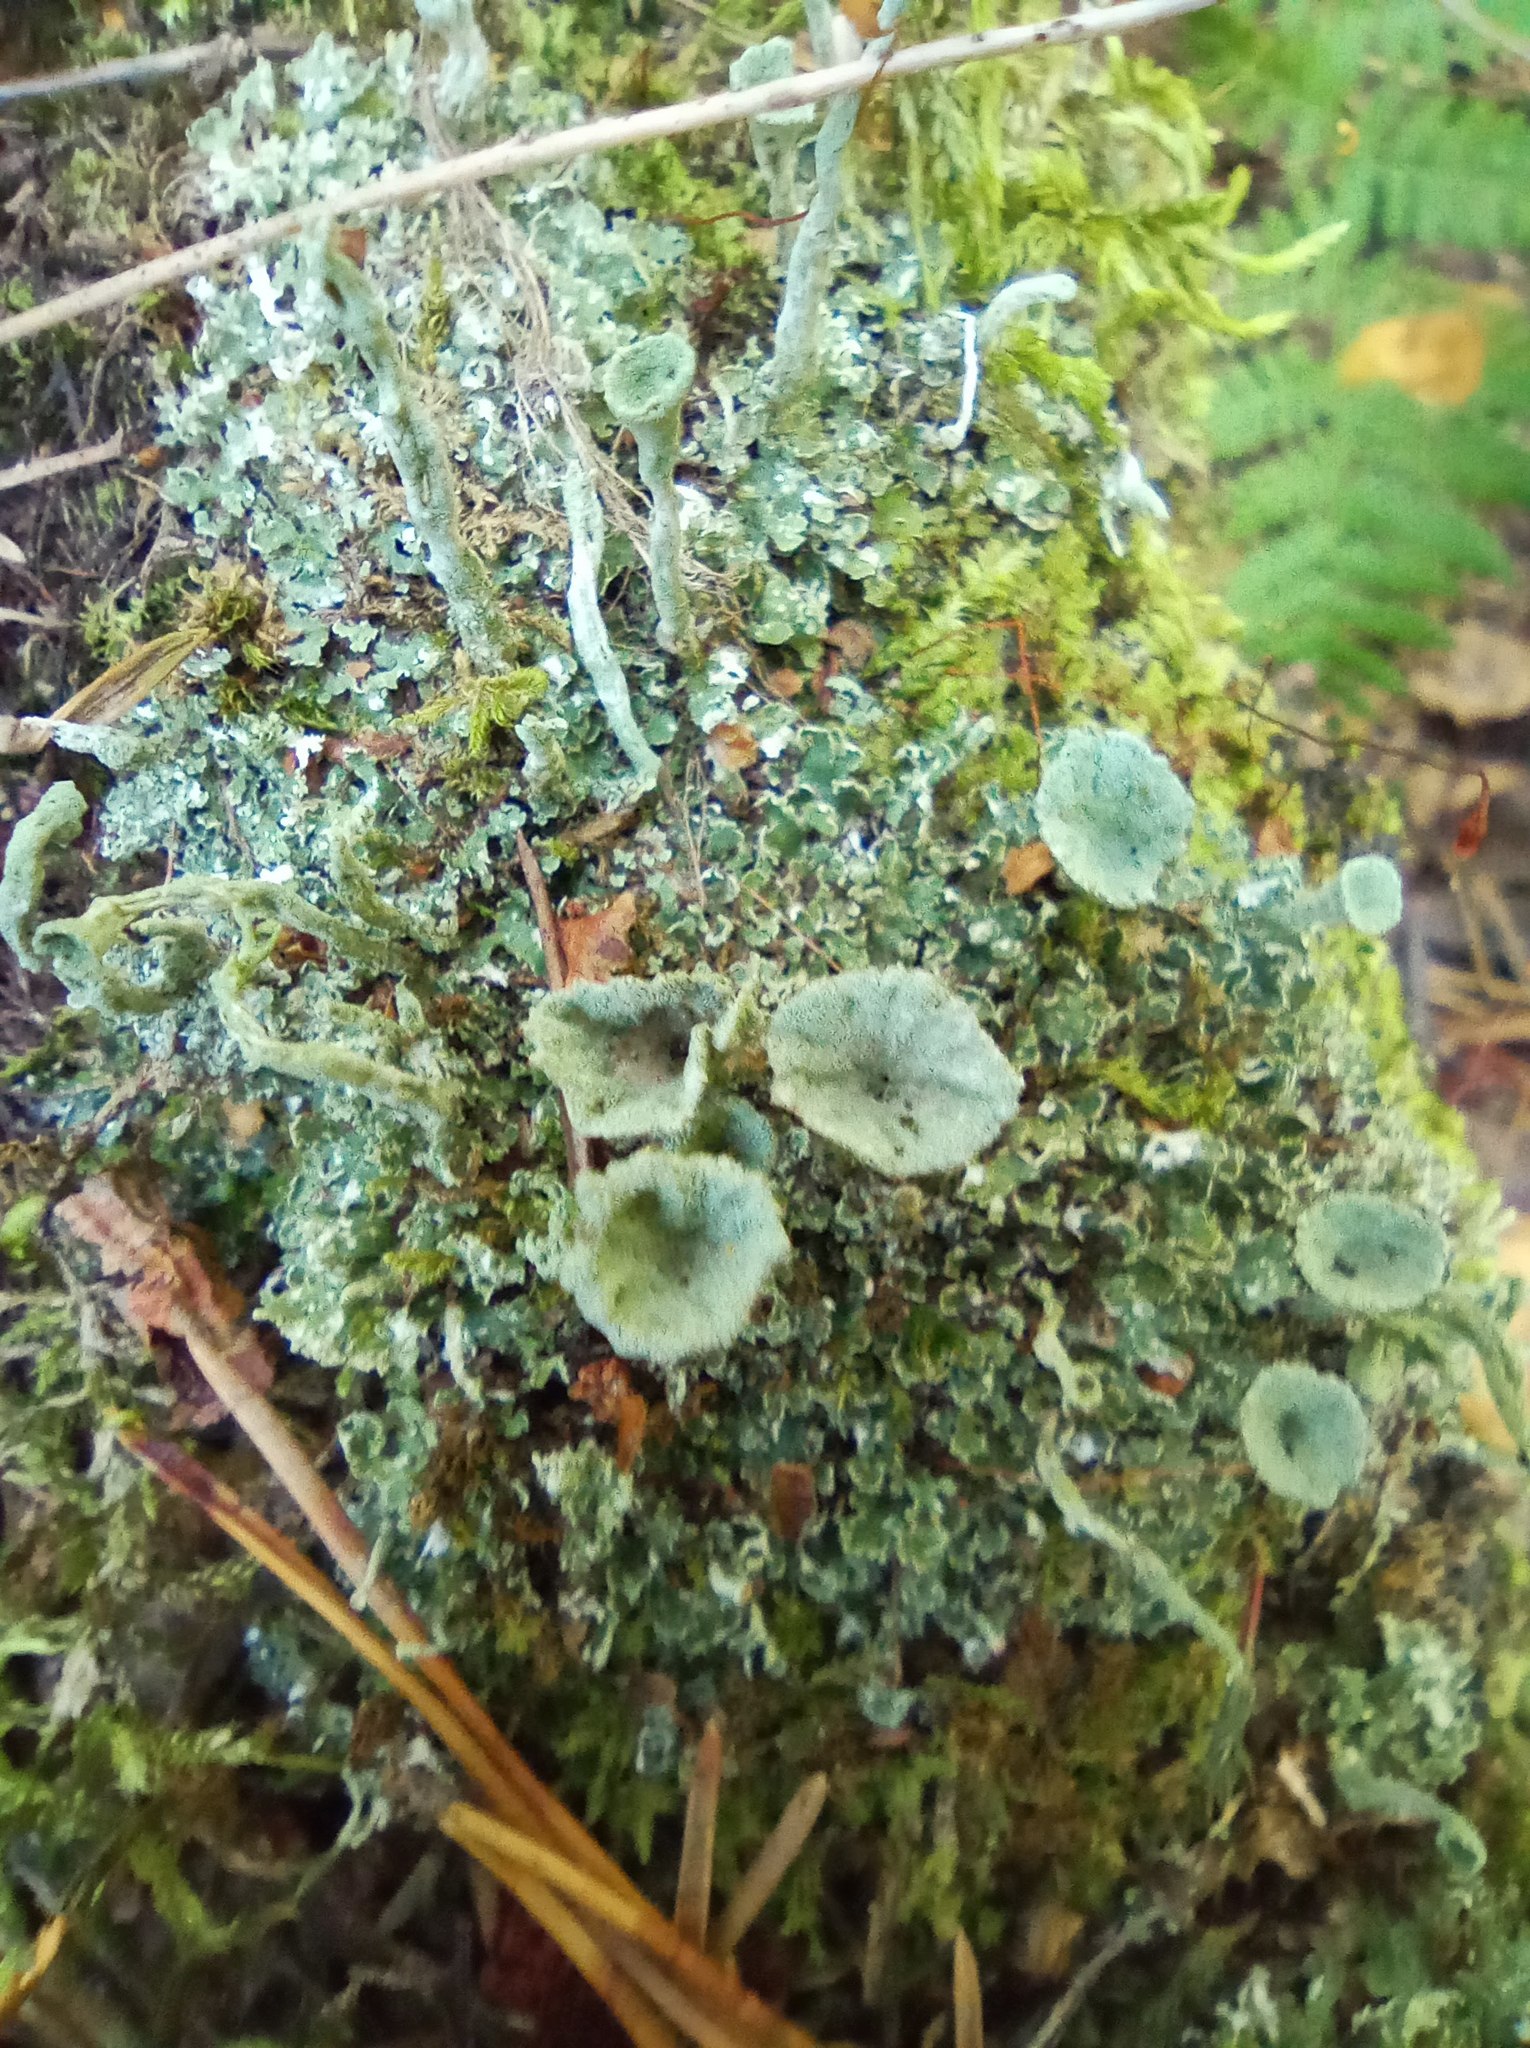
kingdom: Fungi
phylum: Ascomycota
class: Lecanoromycetes
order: Lecanorales
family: Cladoniaceae
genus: Cladonia
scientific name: Cladonia deformis
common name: Lesser sulphur-cup lichen
